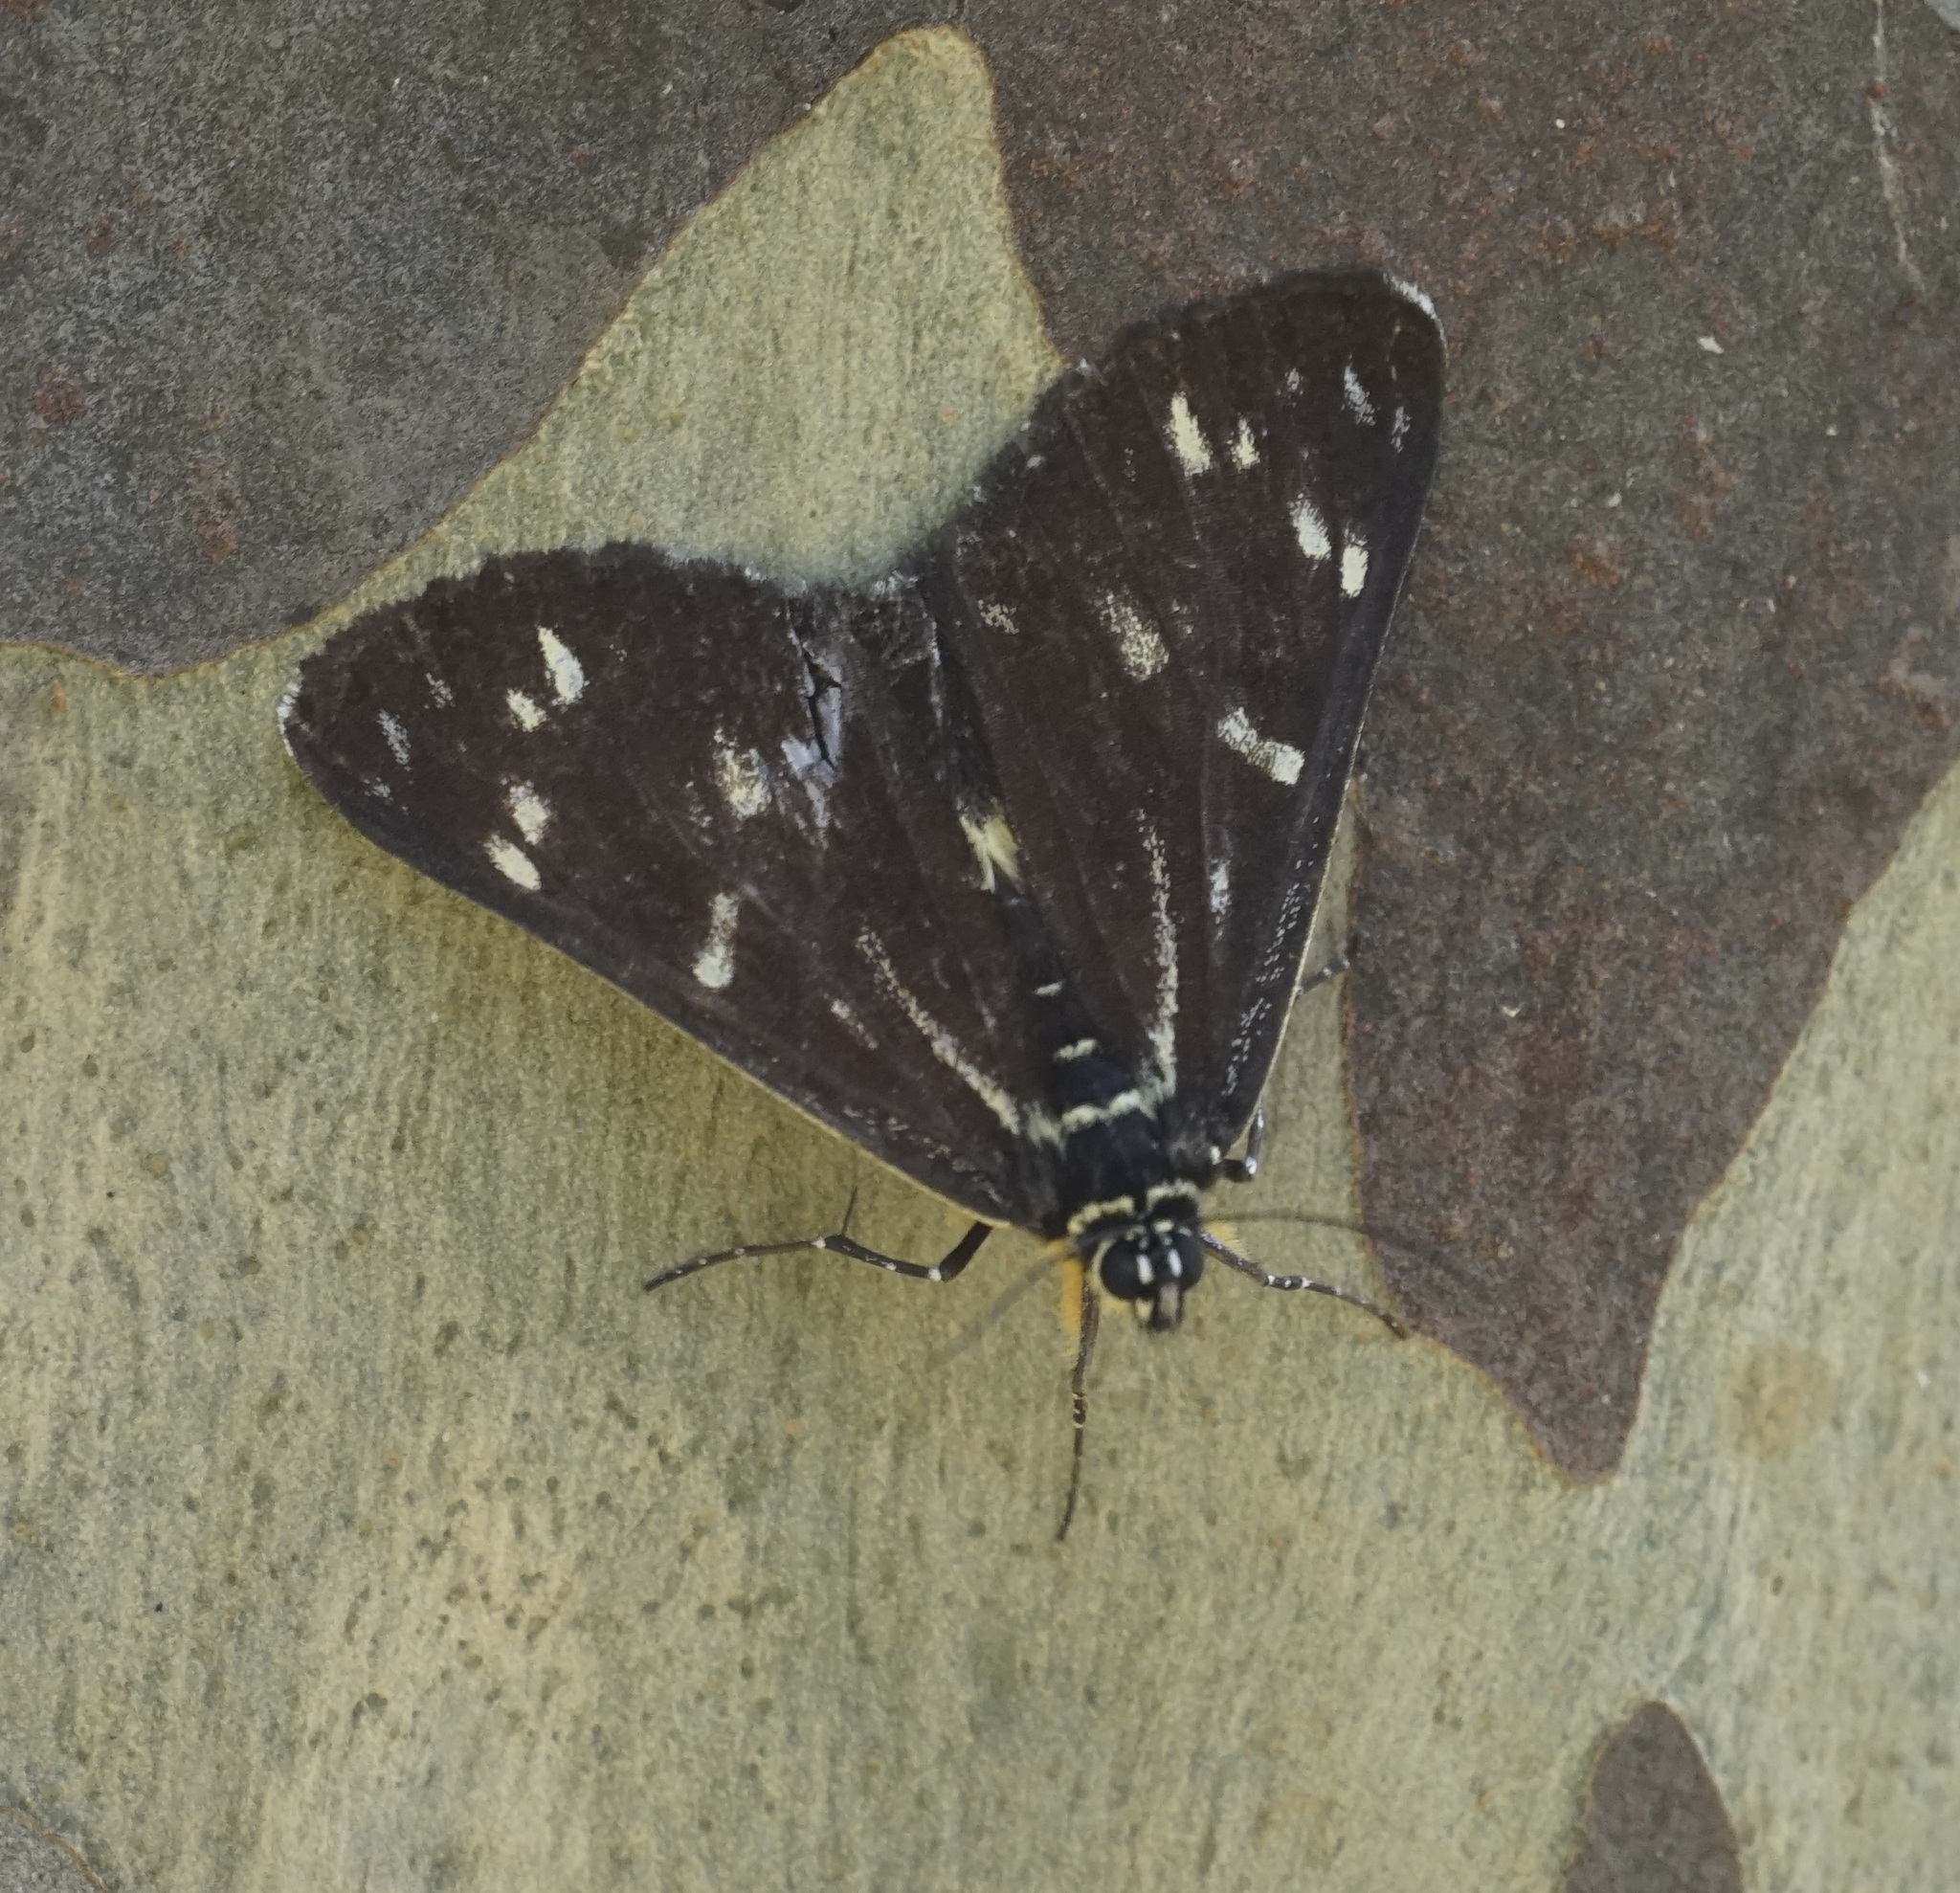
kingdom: Animalia
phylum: Arthropoda
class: Insecta
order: Lepidoptera
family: Noctuidae
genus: Cruria
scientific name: Cruria synopla
